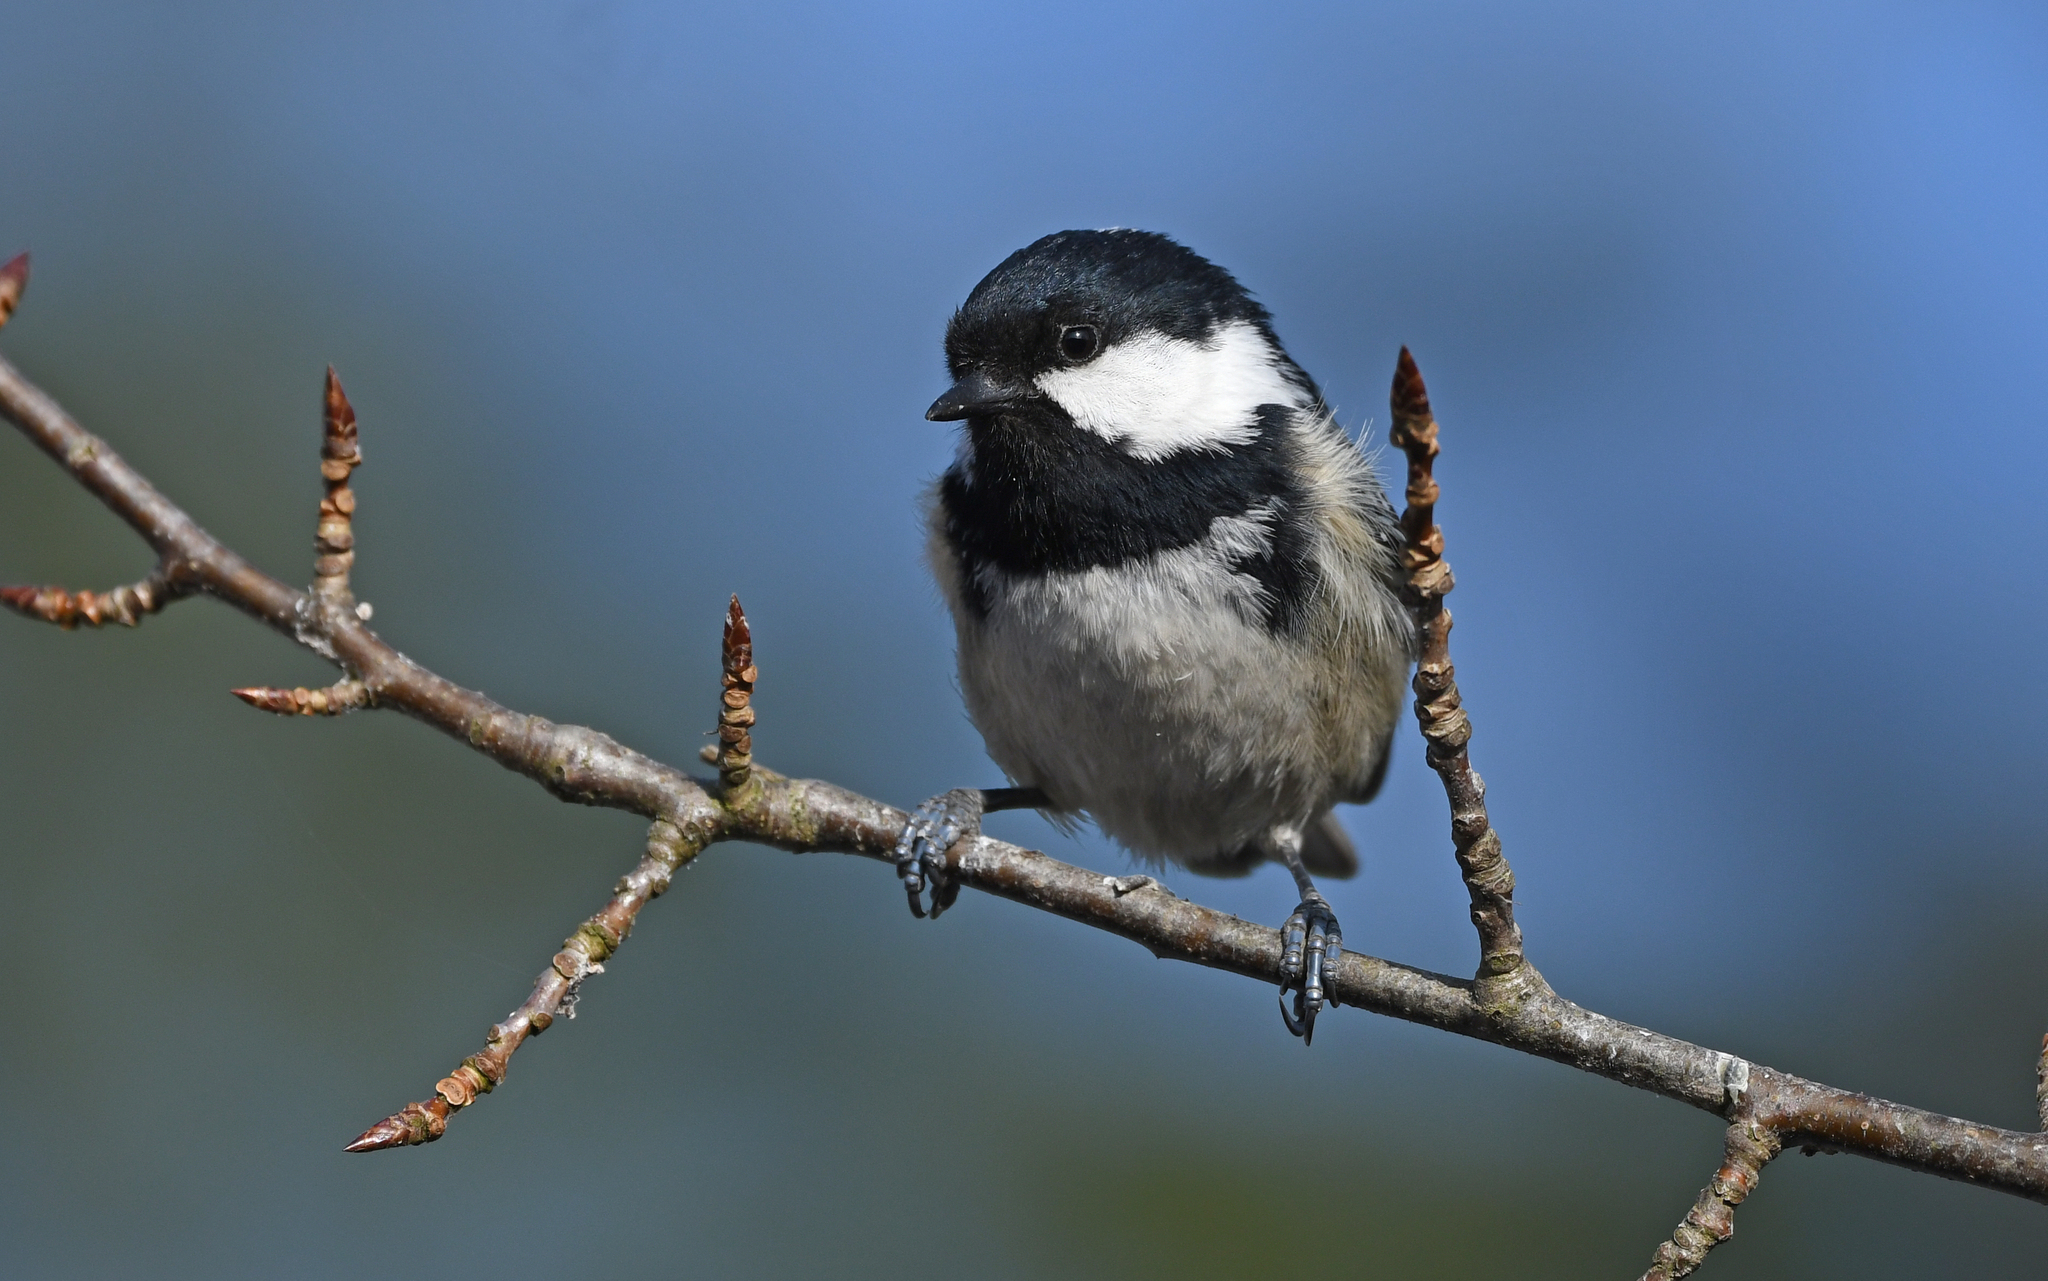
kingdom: Animalia
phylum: Chordata
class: Aves
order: Passeriformes
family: Paridae
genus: Periparus
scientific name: Periparus ater
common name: Coal tit
